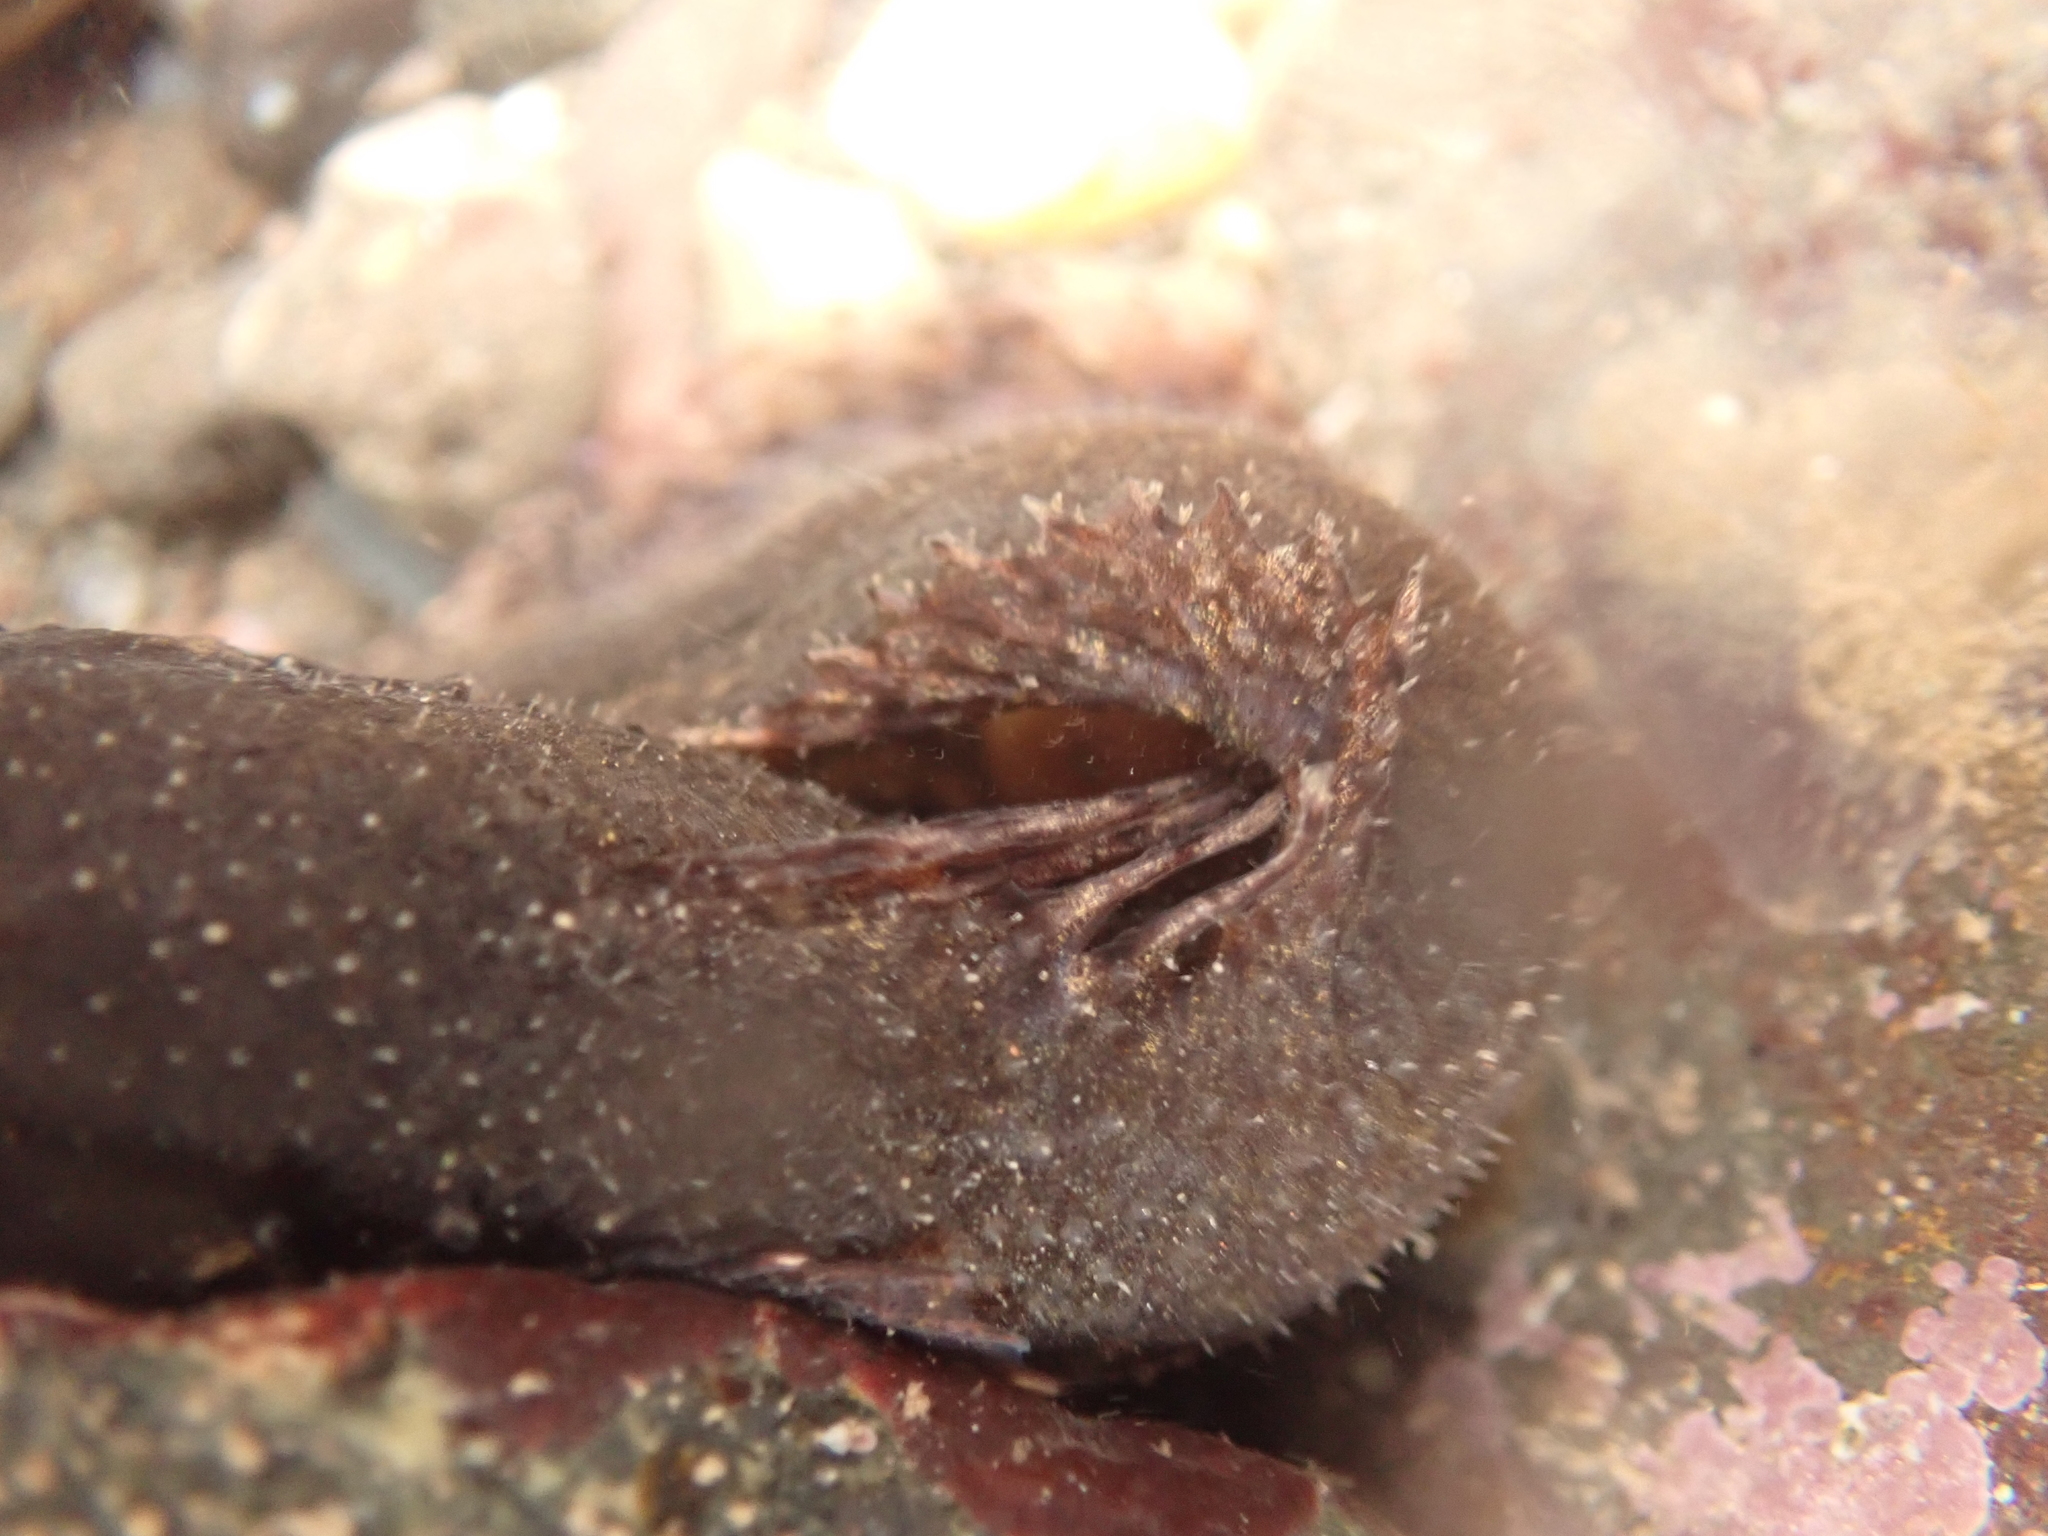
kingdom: Animalia
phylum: Chordata
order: Scorpaeniformes
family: Liparidae
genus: Liparis
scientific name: Liparis atlanticus
